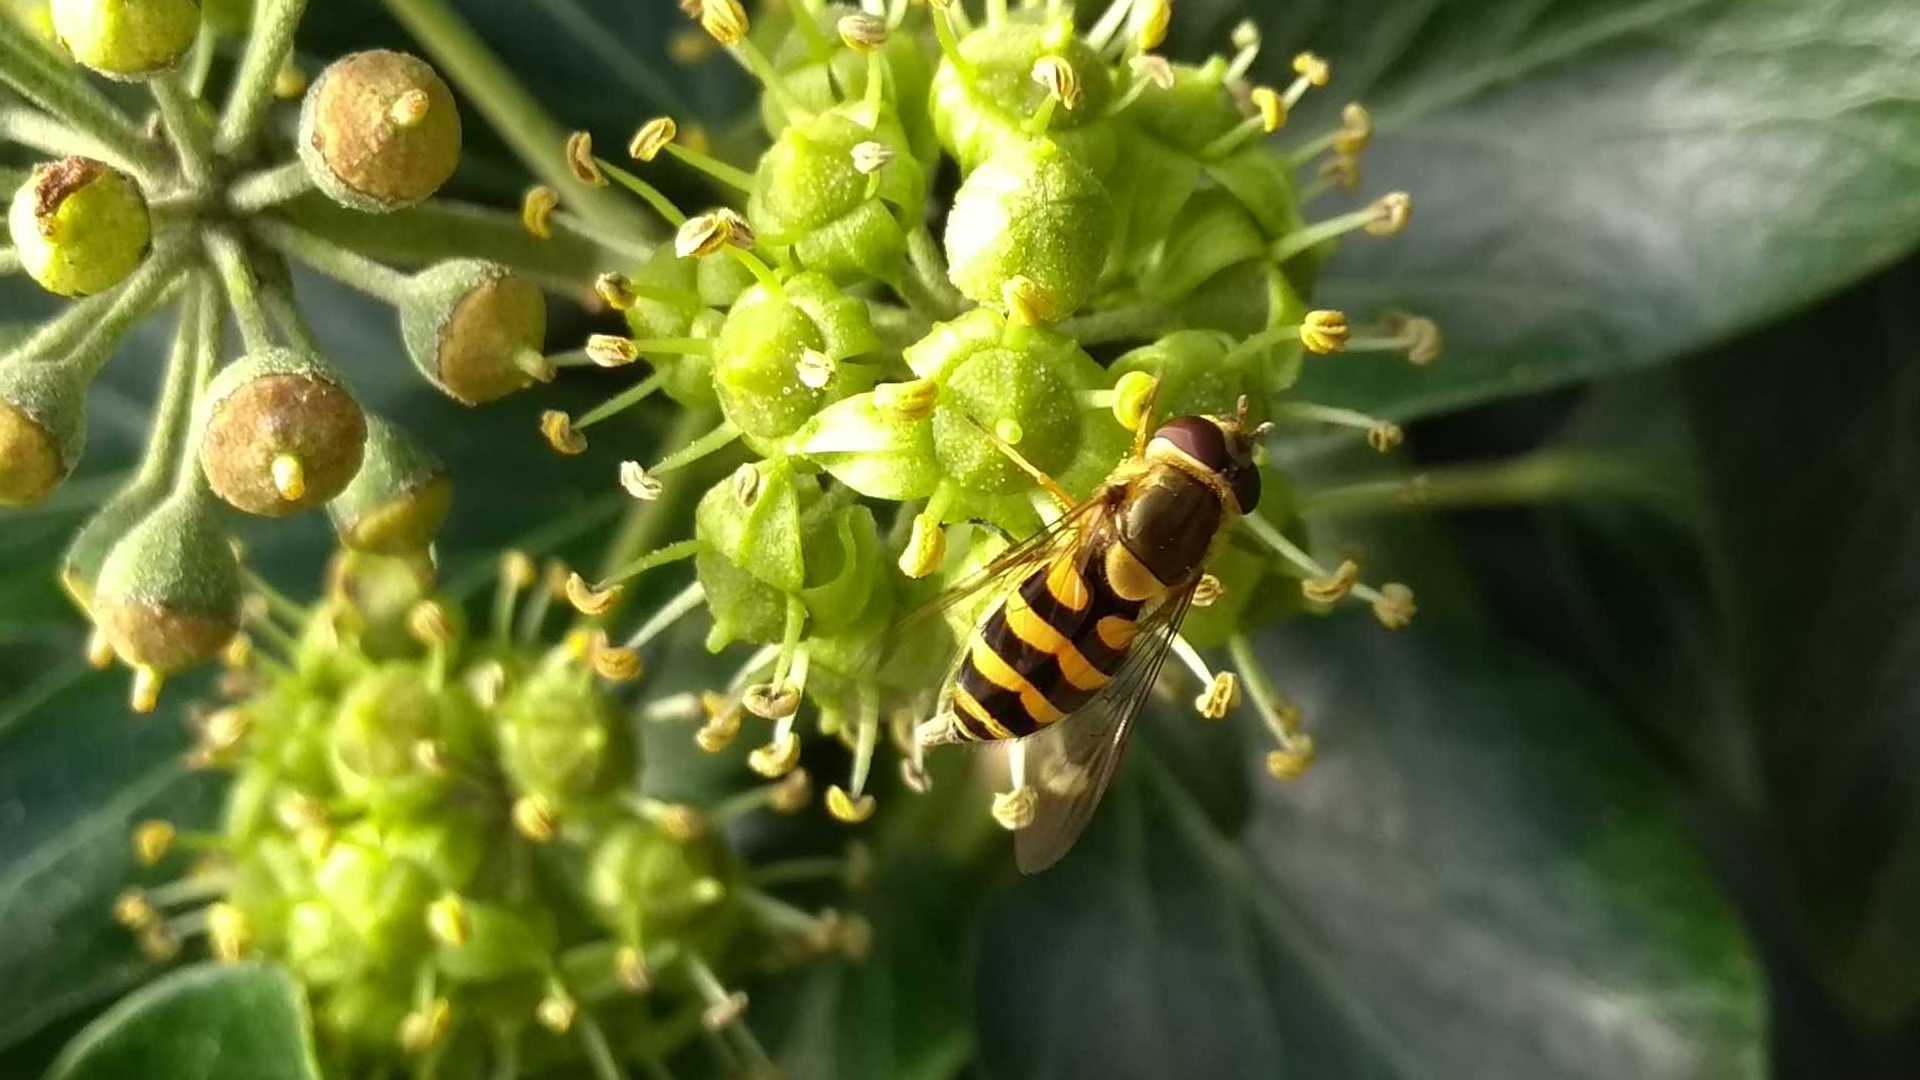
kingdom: Animalia
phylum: Arthropoda
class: Insecta
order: Diptera
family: Syrphidae
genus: Syrphus
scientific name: Syrphus
